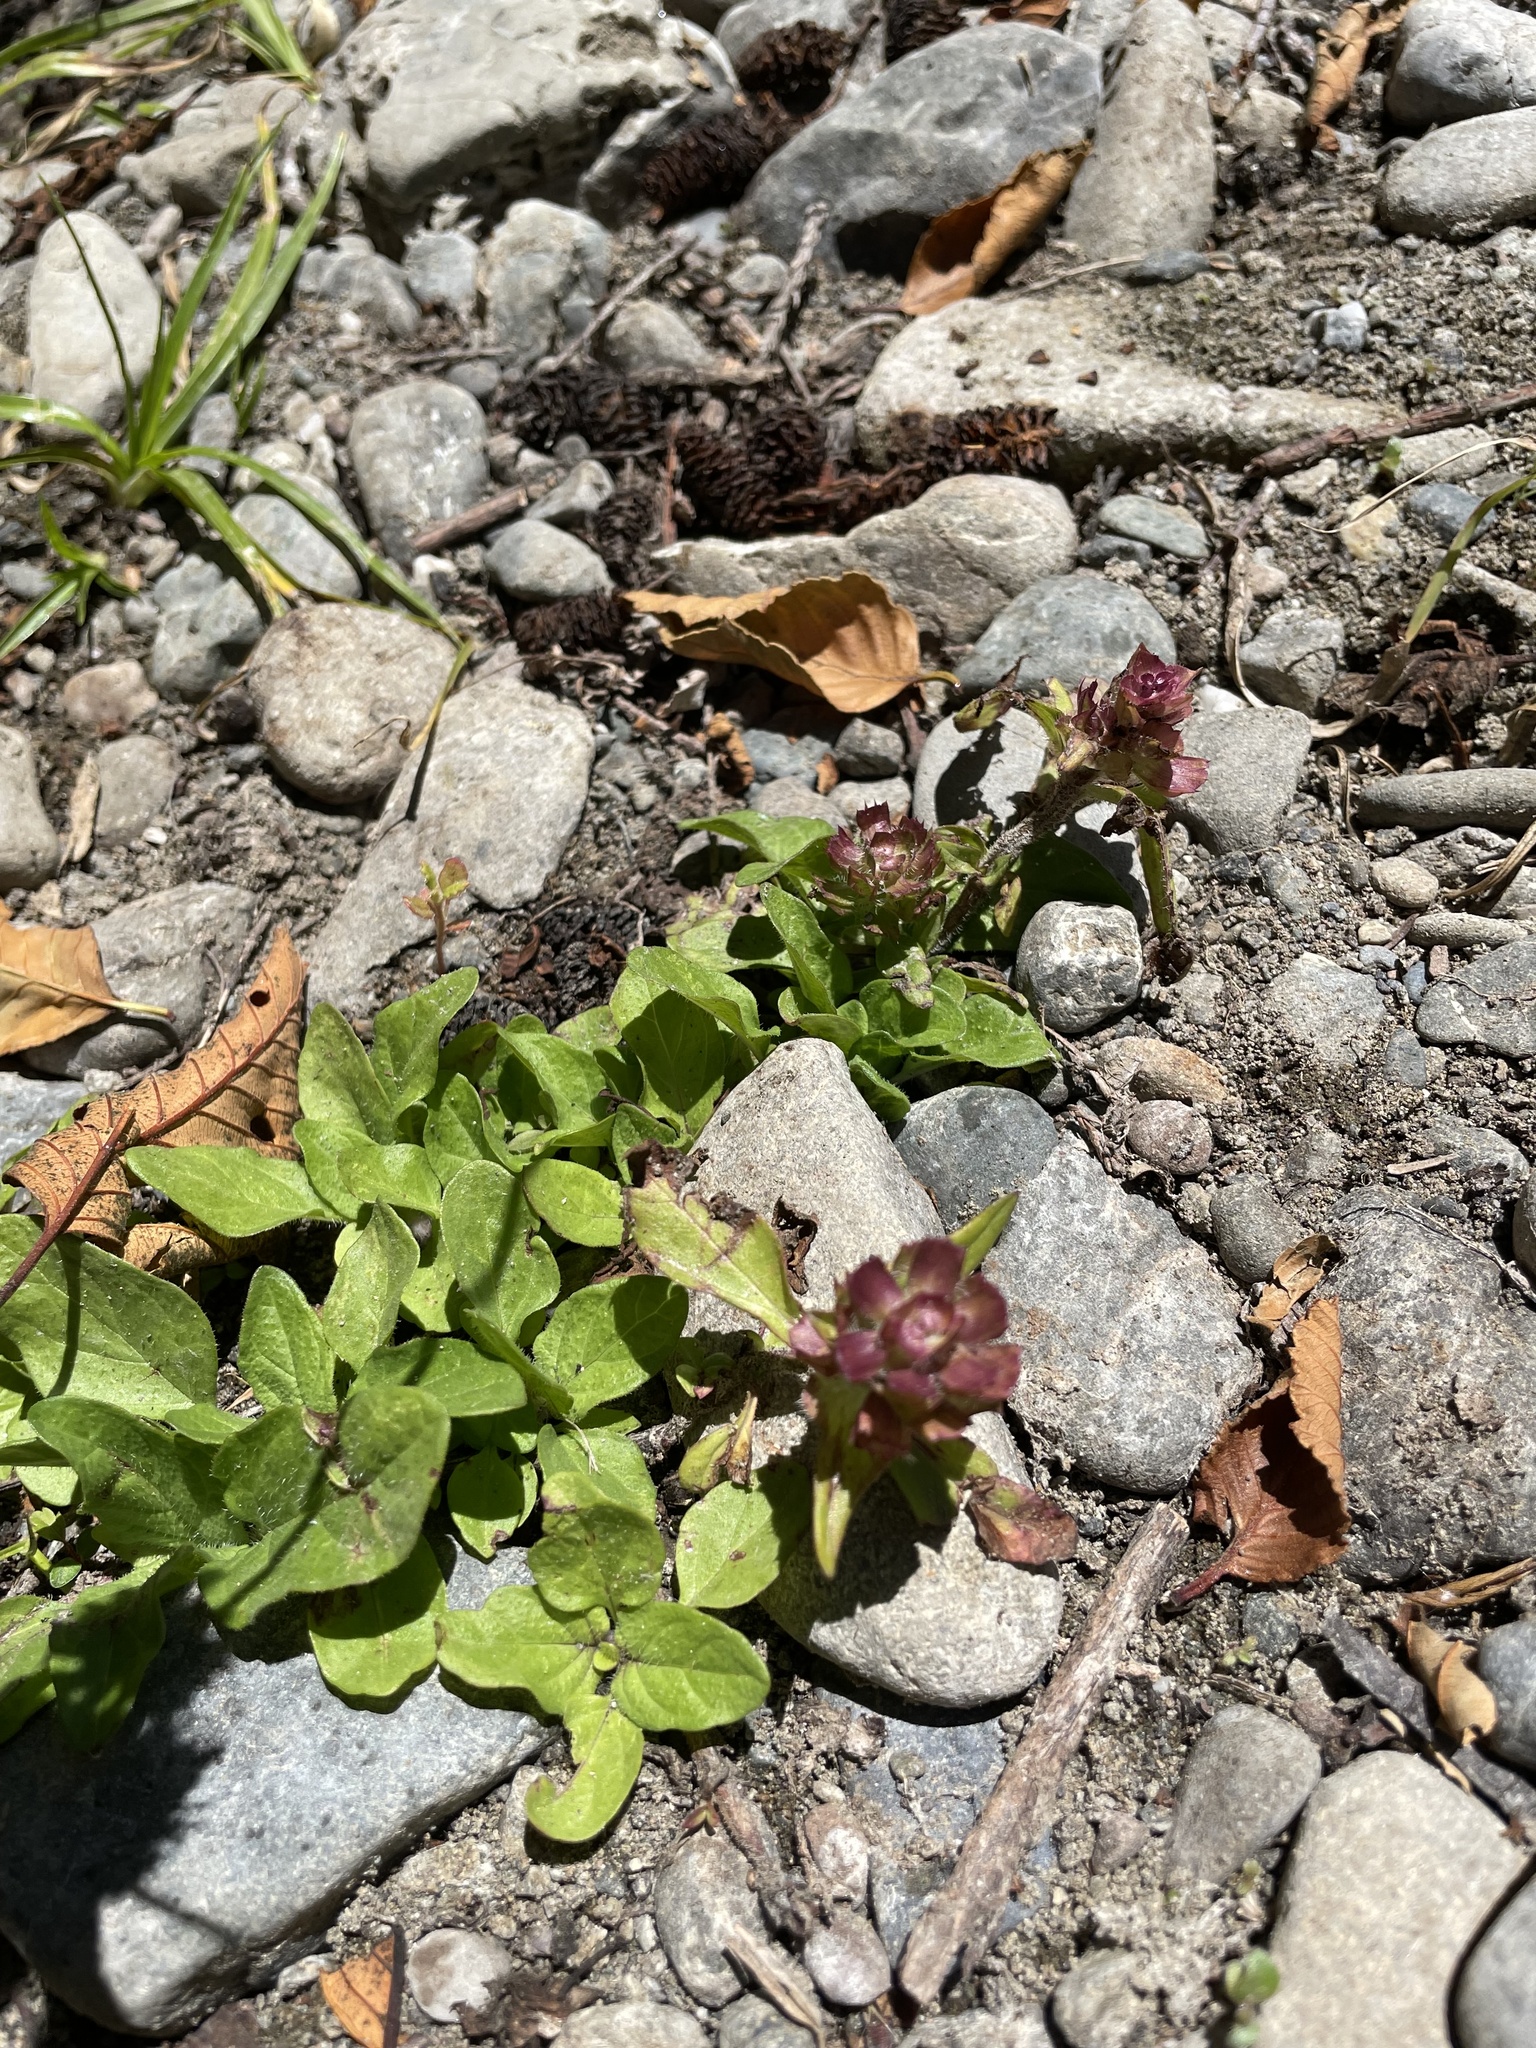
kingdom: Plantae
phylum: Tracheophyta
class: Magnoliopsida
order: Lamiales
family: Lamiaceae
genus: Prunella
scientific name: Prunella vulgaris
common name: Heal-all
